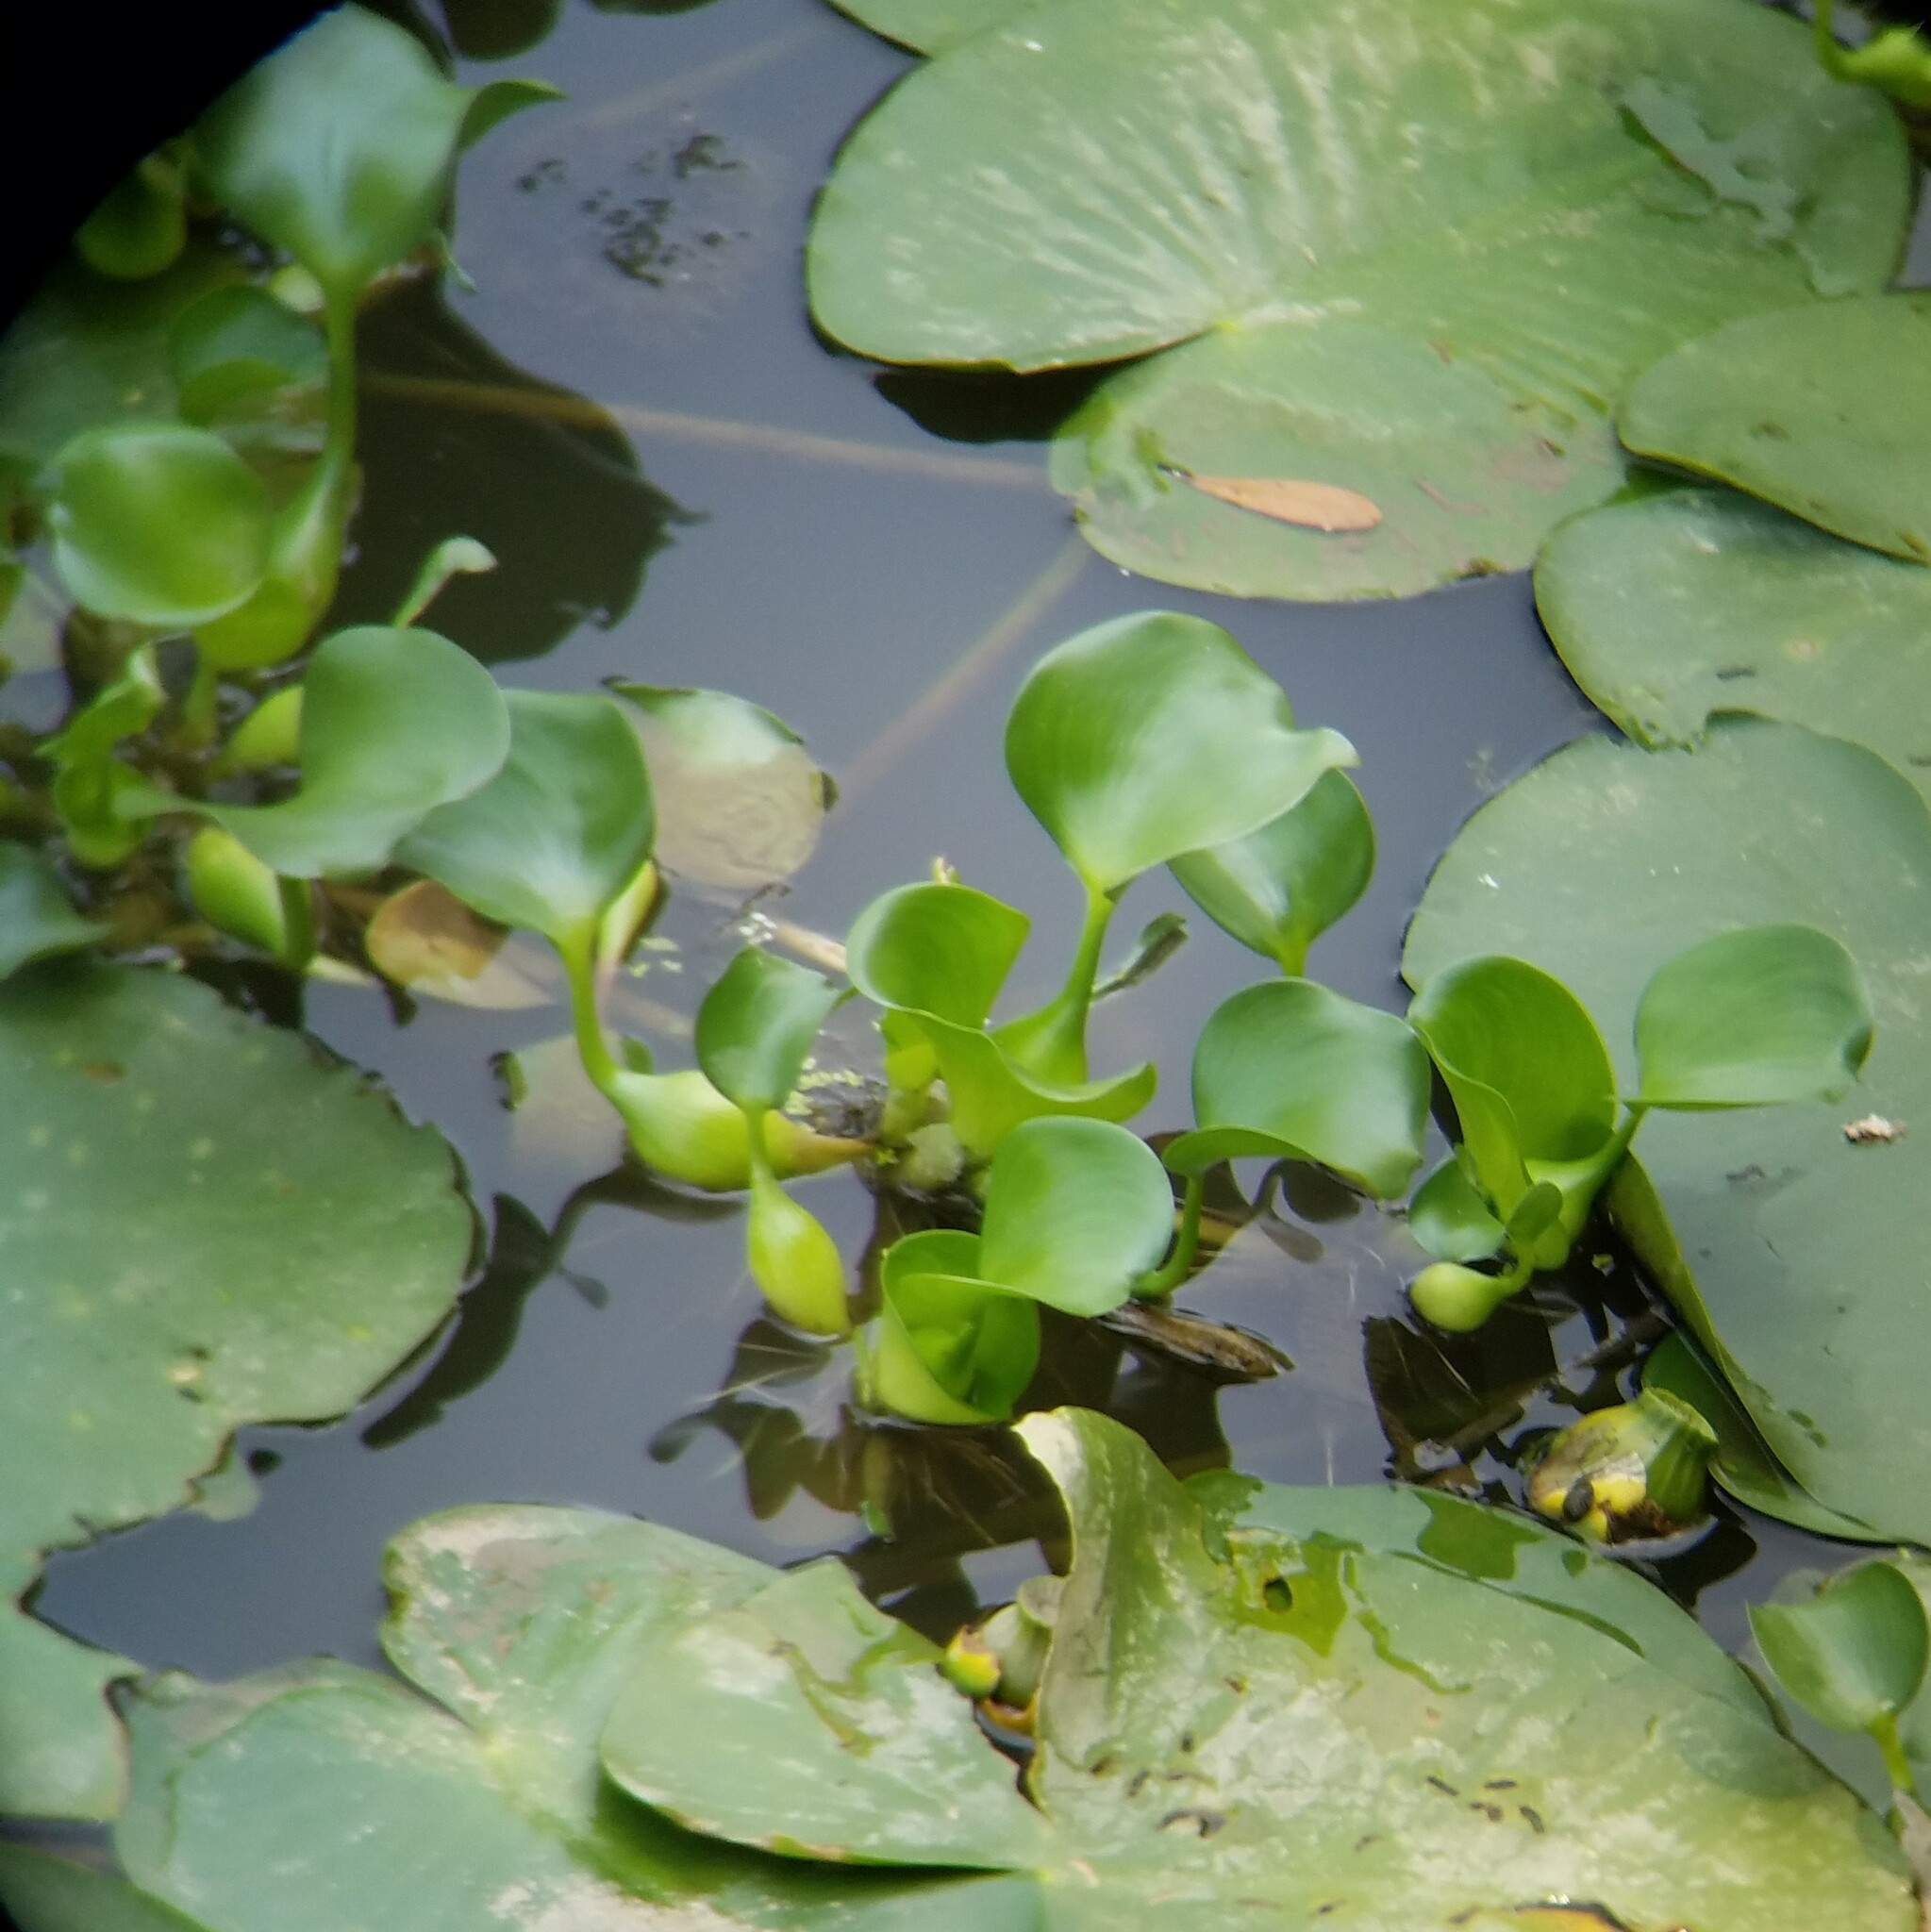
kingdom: Plantae
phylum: Tracheophyta
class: Liliopsida
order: Commelinales
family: Pontederiaceae
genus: Pontederia
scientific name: Pontederia crassipes
